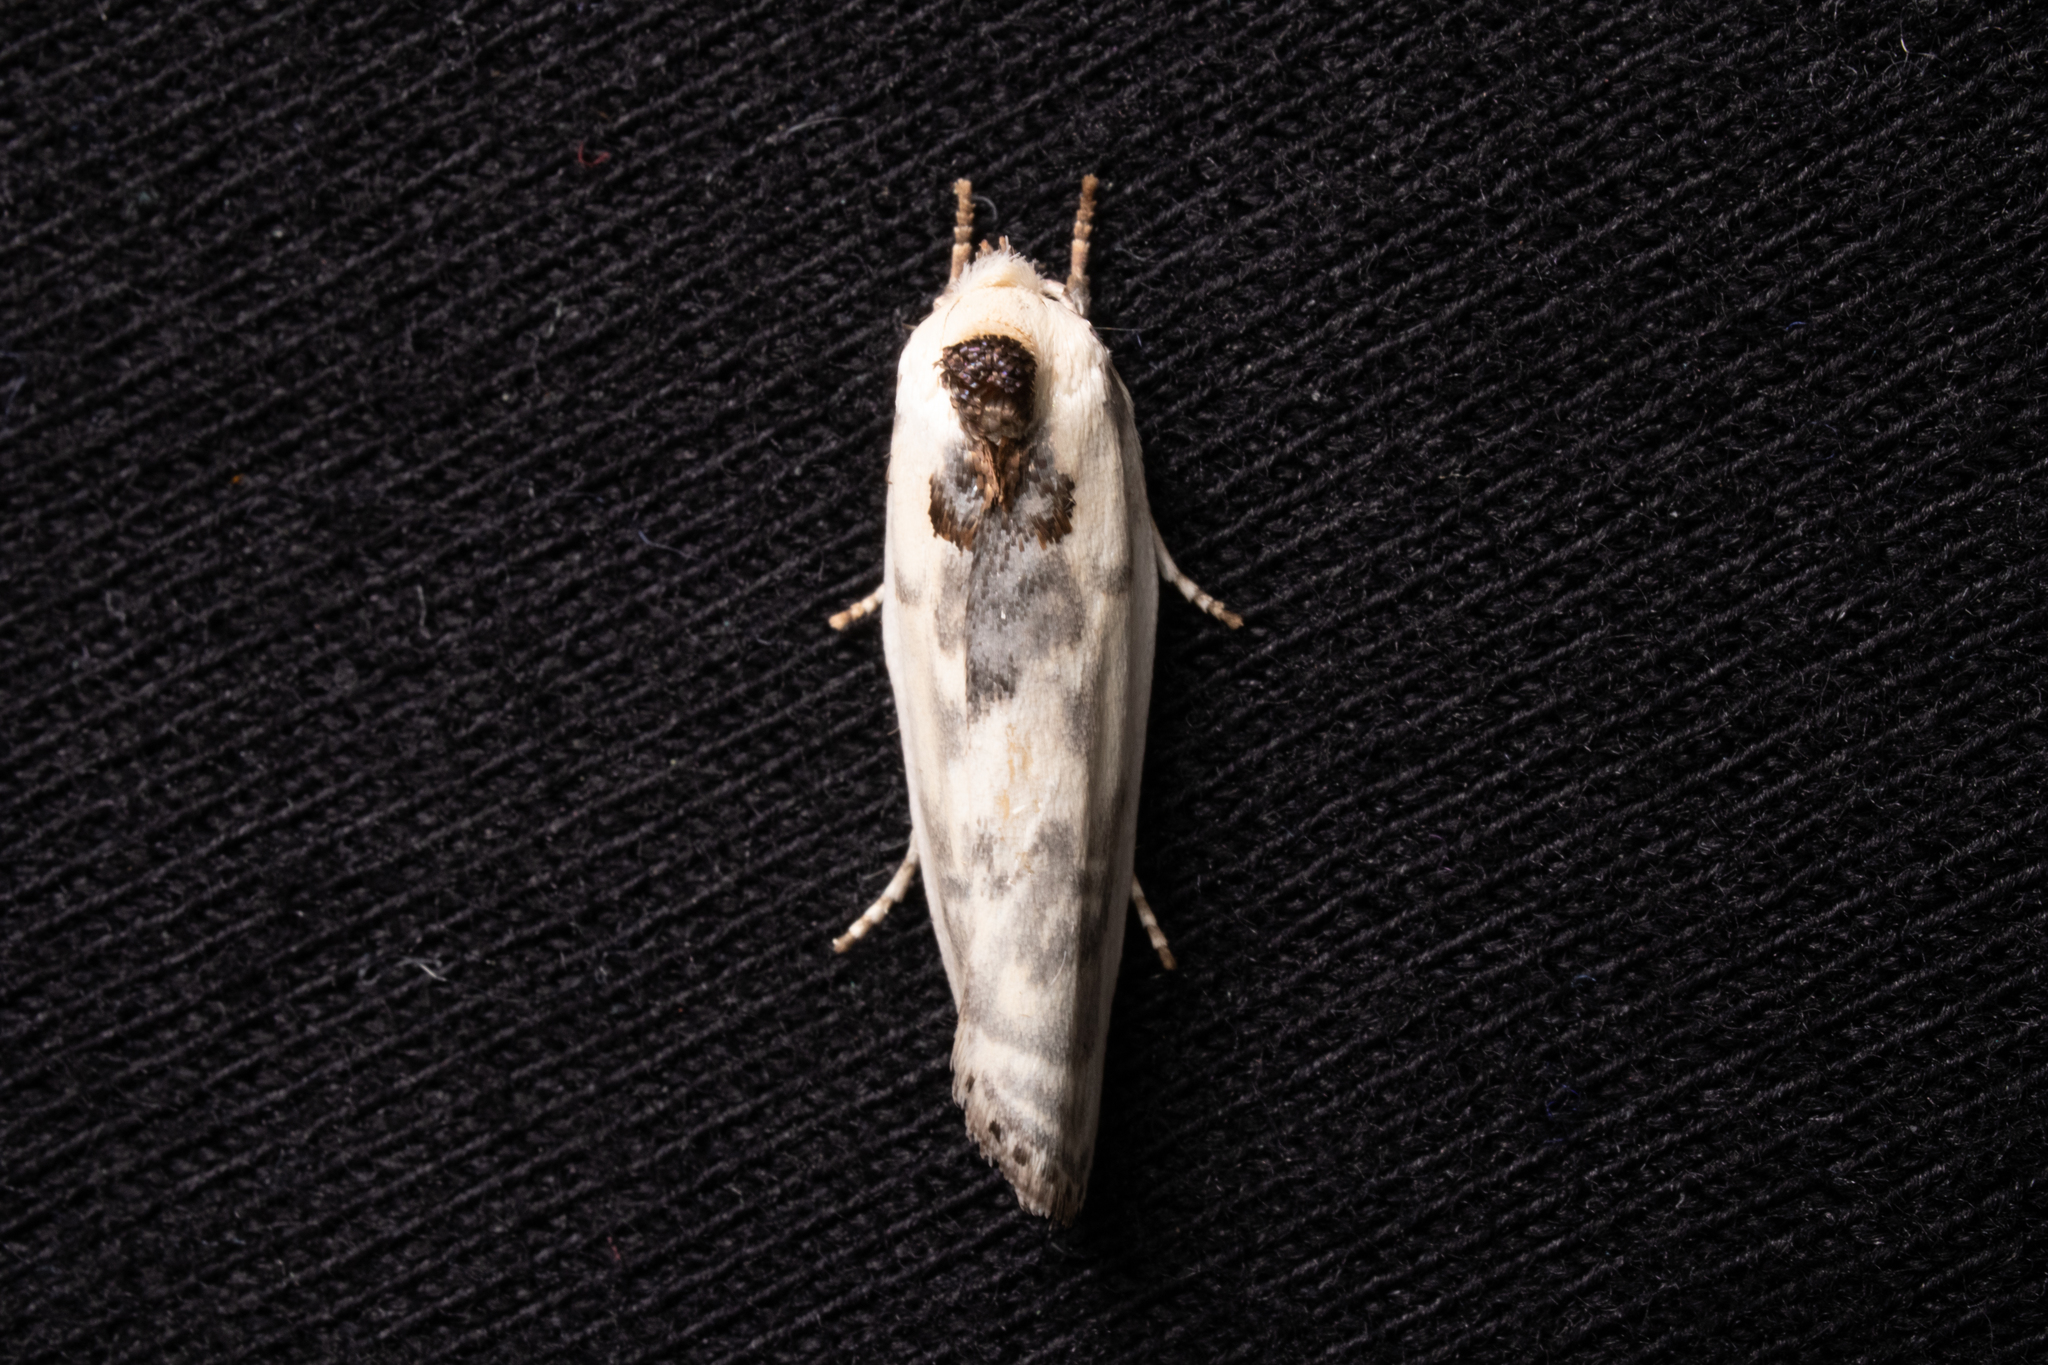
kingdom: Animalia
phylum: Arthropoda
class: Insecta
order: Lepidoptera
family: Depressariidae
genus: Antaeotricha
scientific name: Antaeotricha schlaegeri
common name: Schlaeger's fruitworm moth
